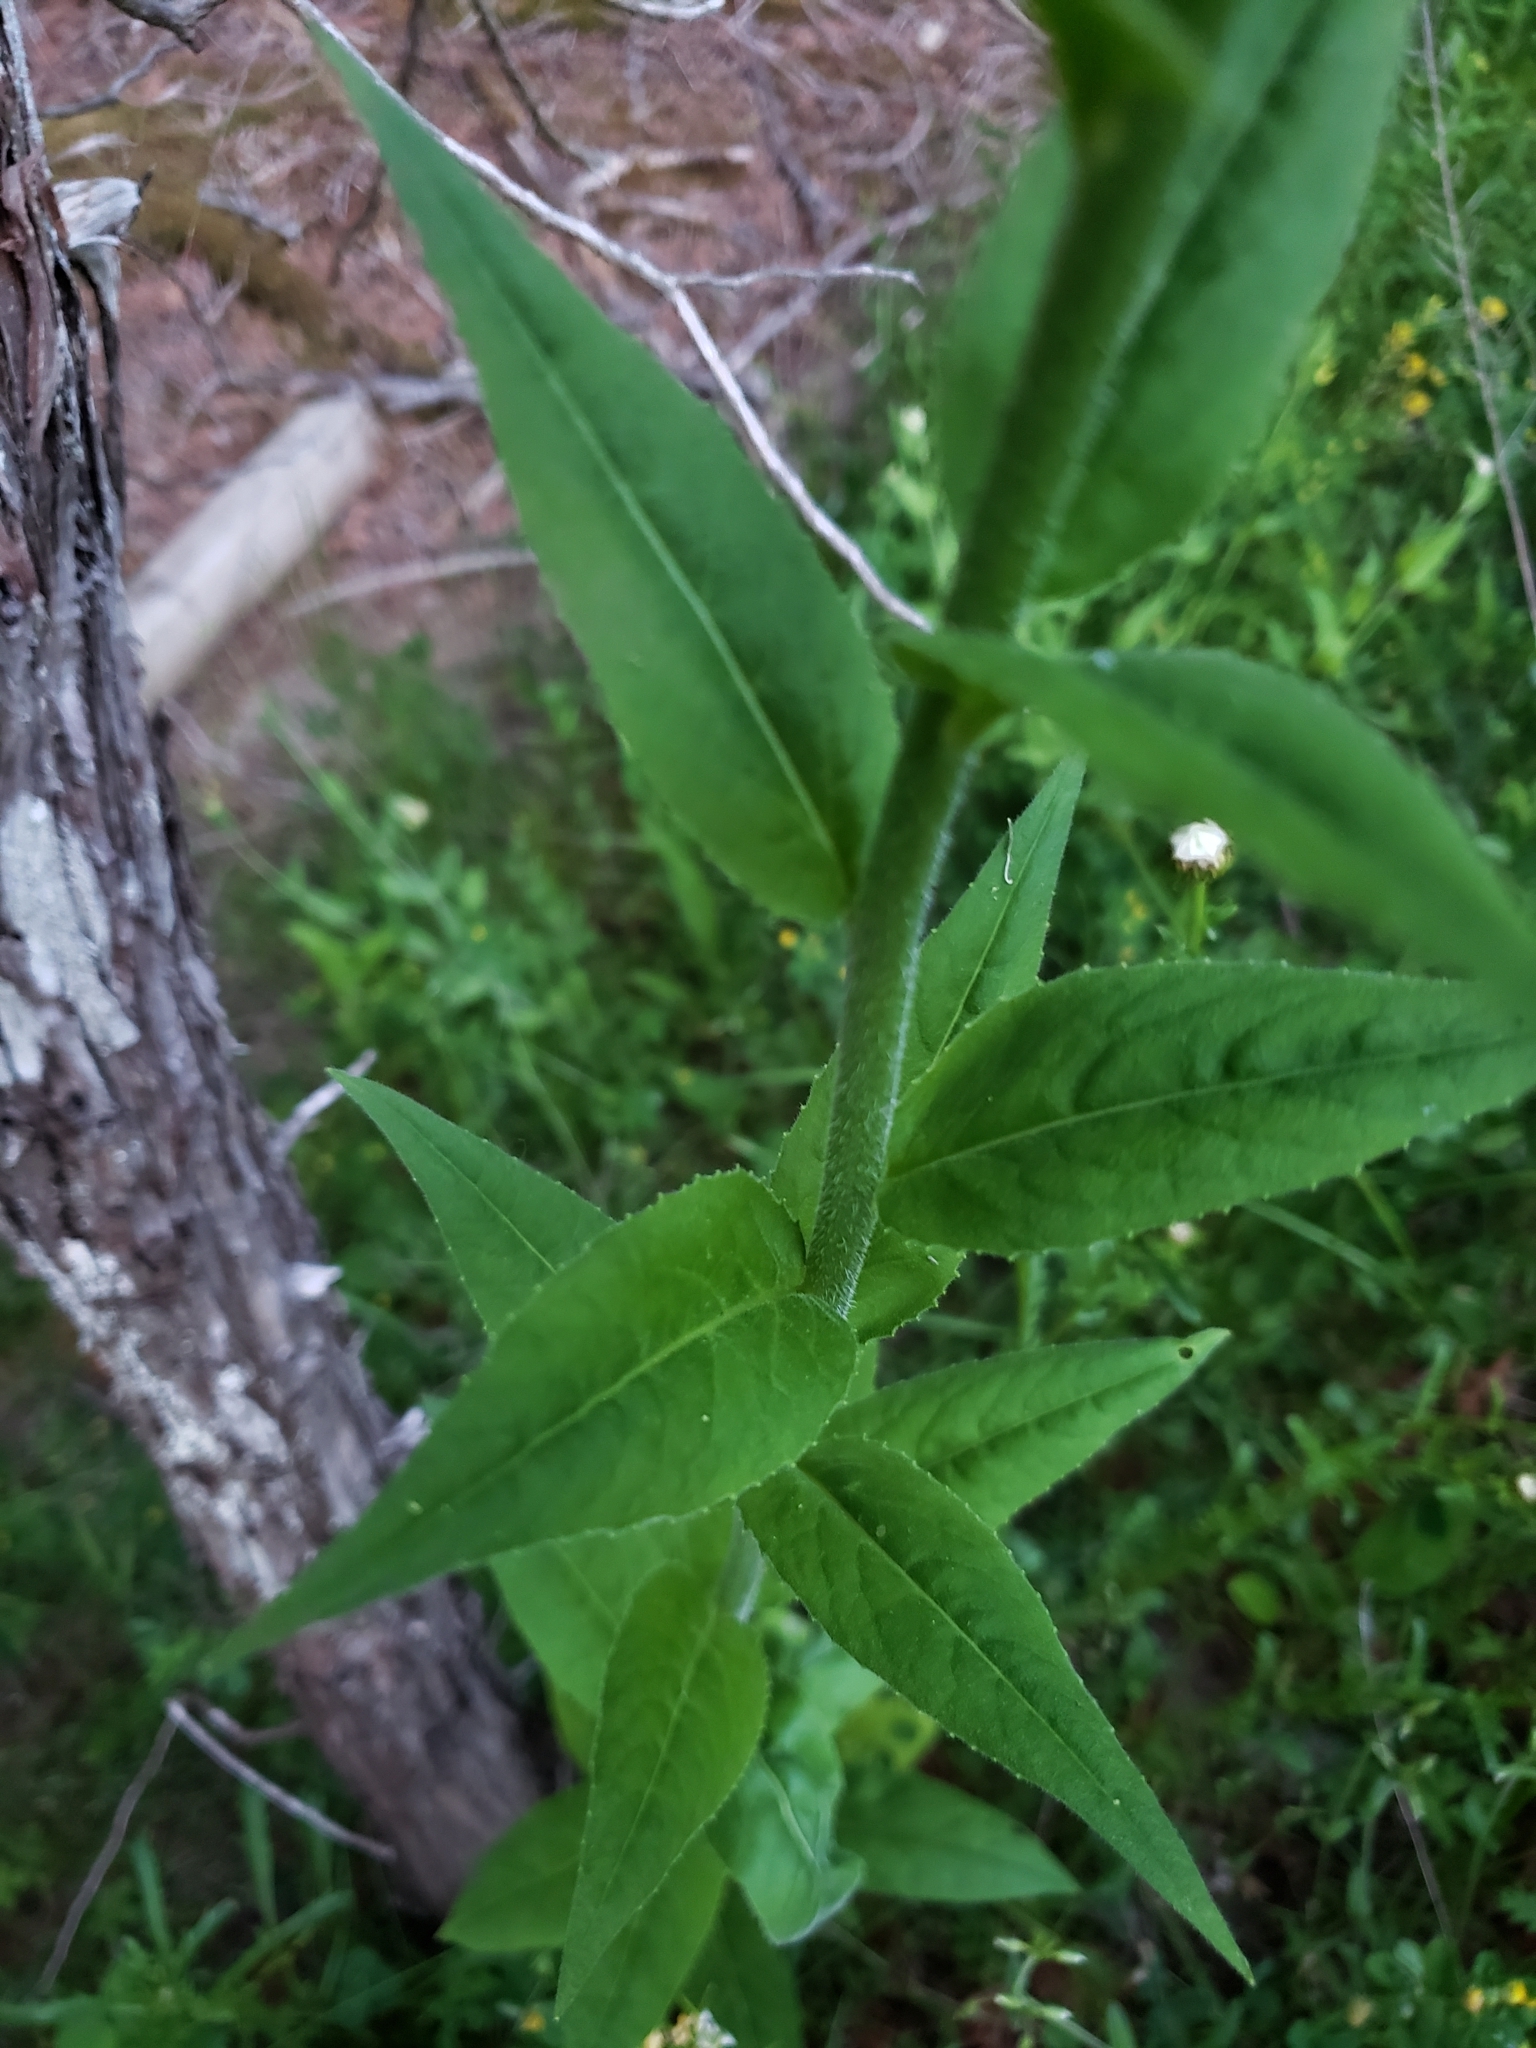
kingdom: Plantae
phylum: Tracheophyta
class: Magnoliopsida
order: Brassicales
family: Brassicaceae
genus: Hesperis
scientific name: Hesperis matronalis
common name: Dame's-violet
